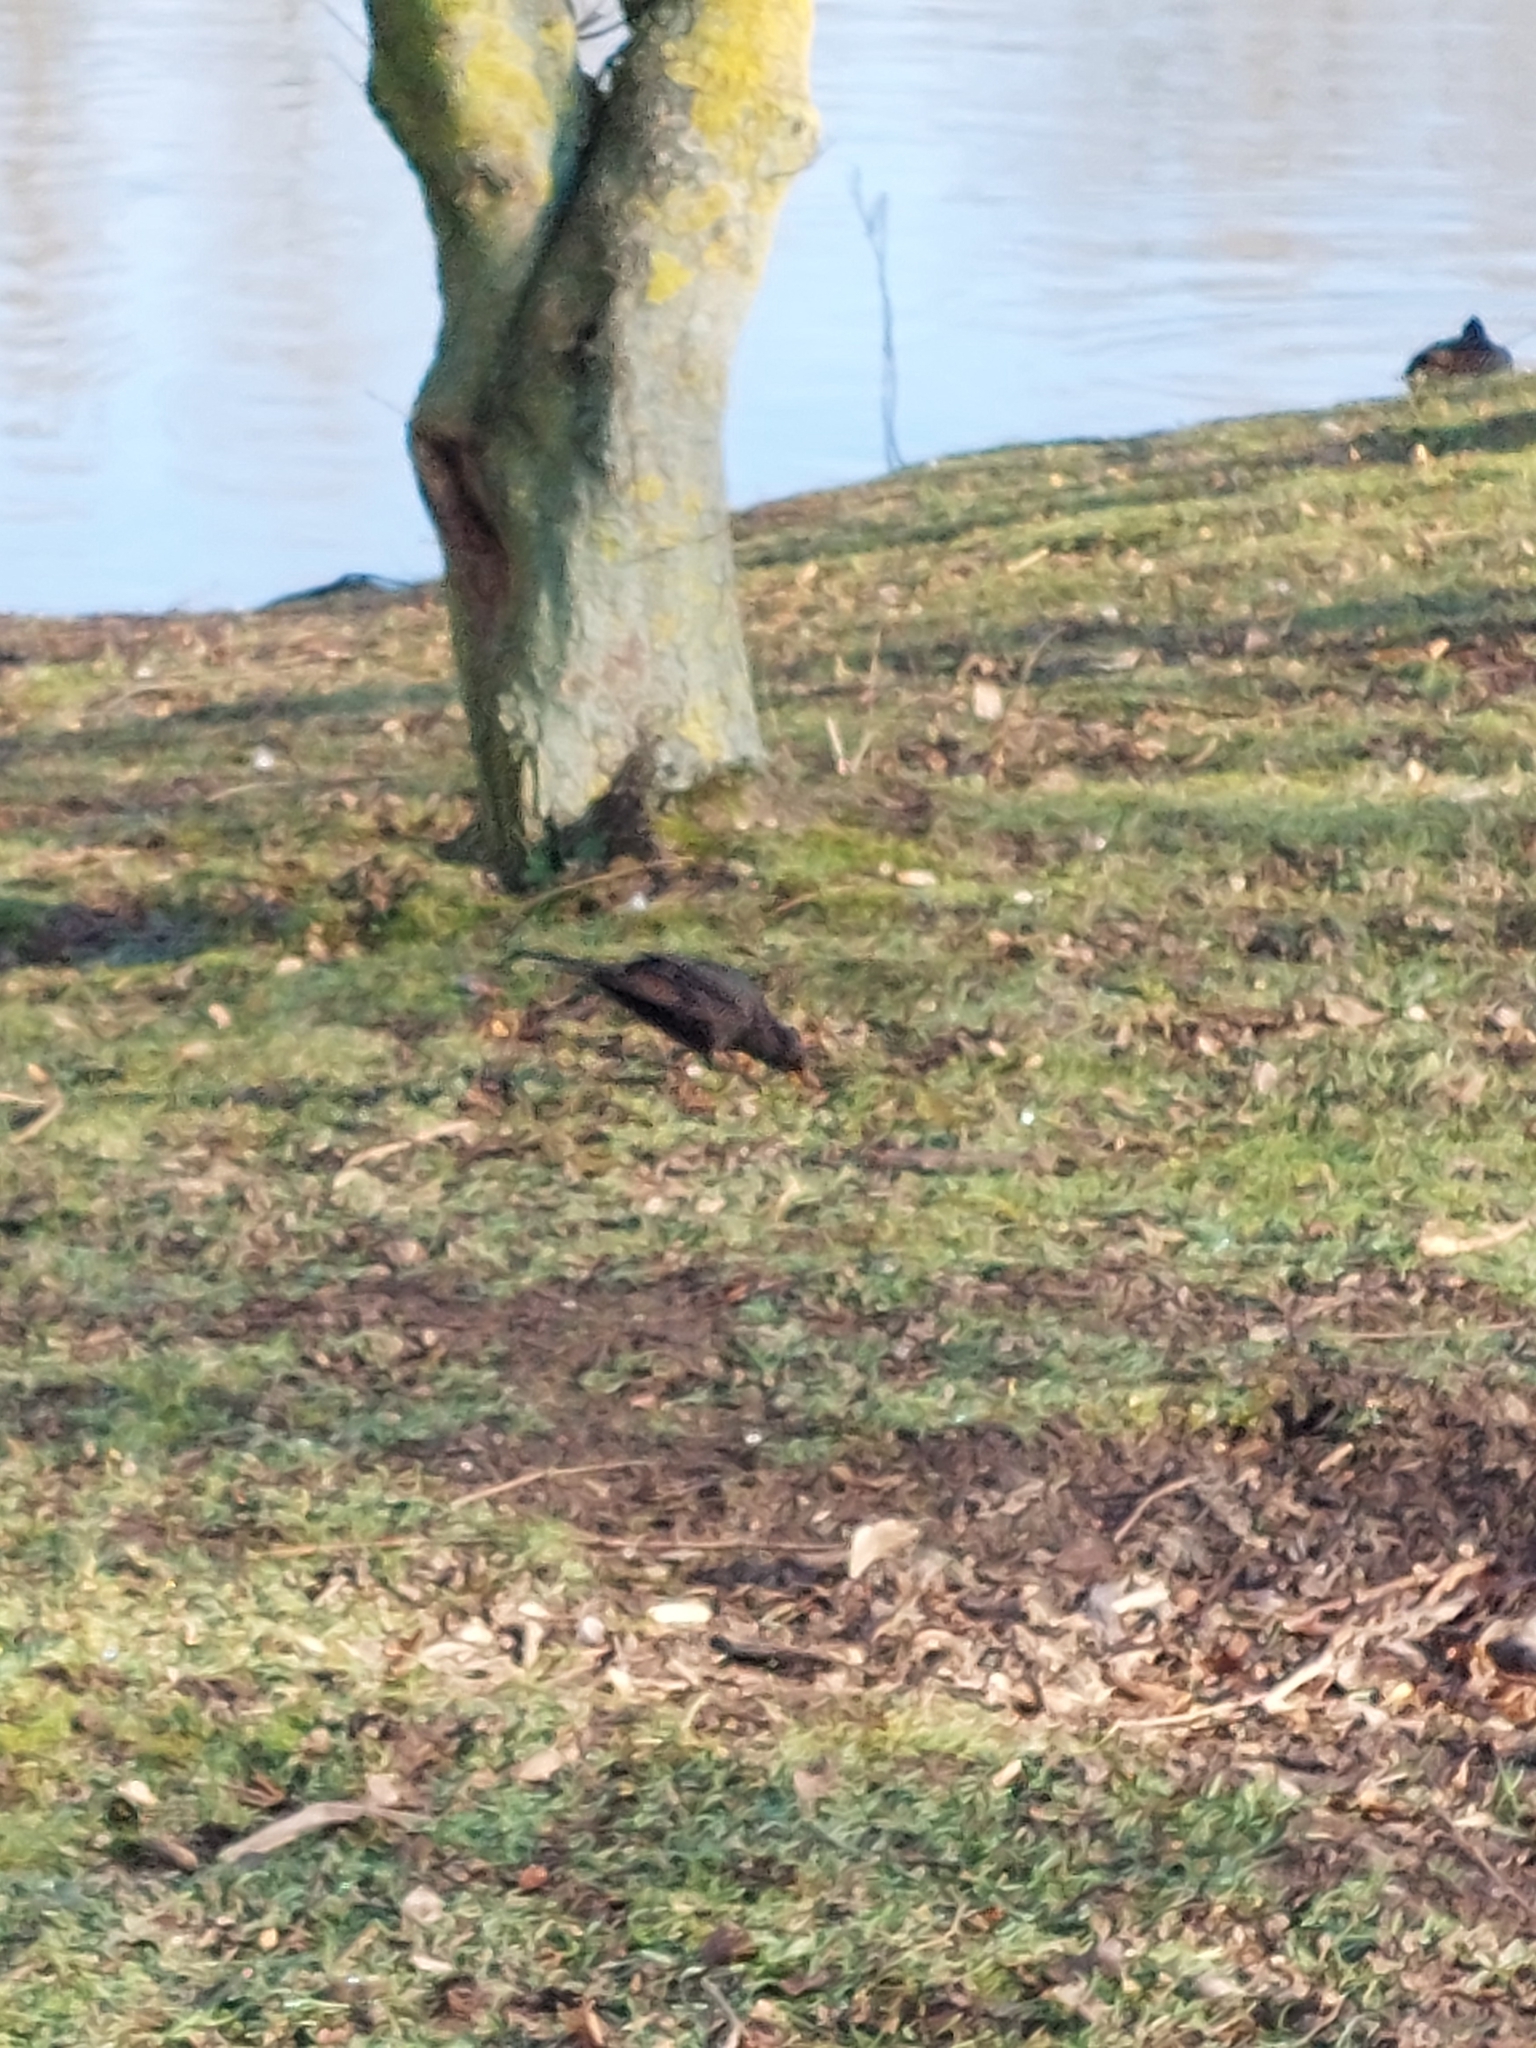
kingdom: Animalia
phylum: Chordata
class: Aves
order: Passeriformes
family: Turdidae
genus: Turdus
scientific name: Turdus merula
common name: Common blackbird
